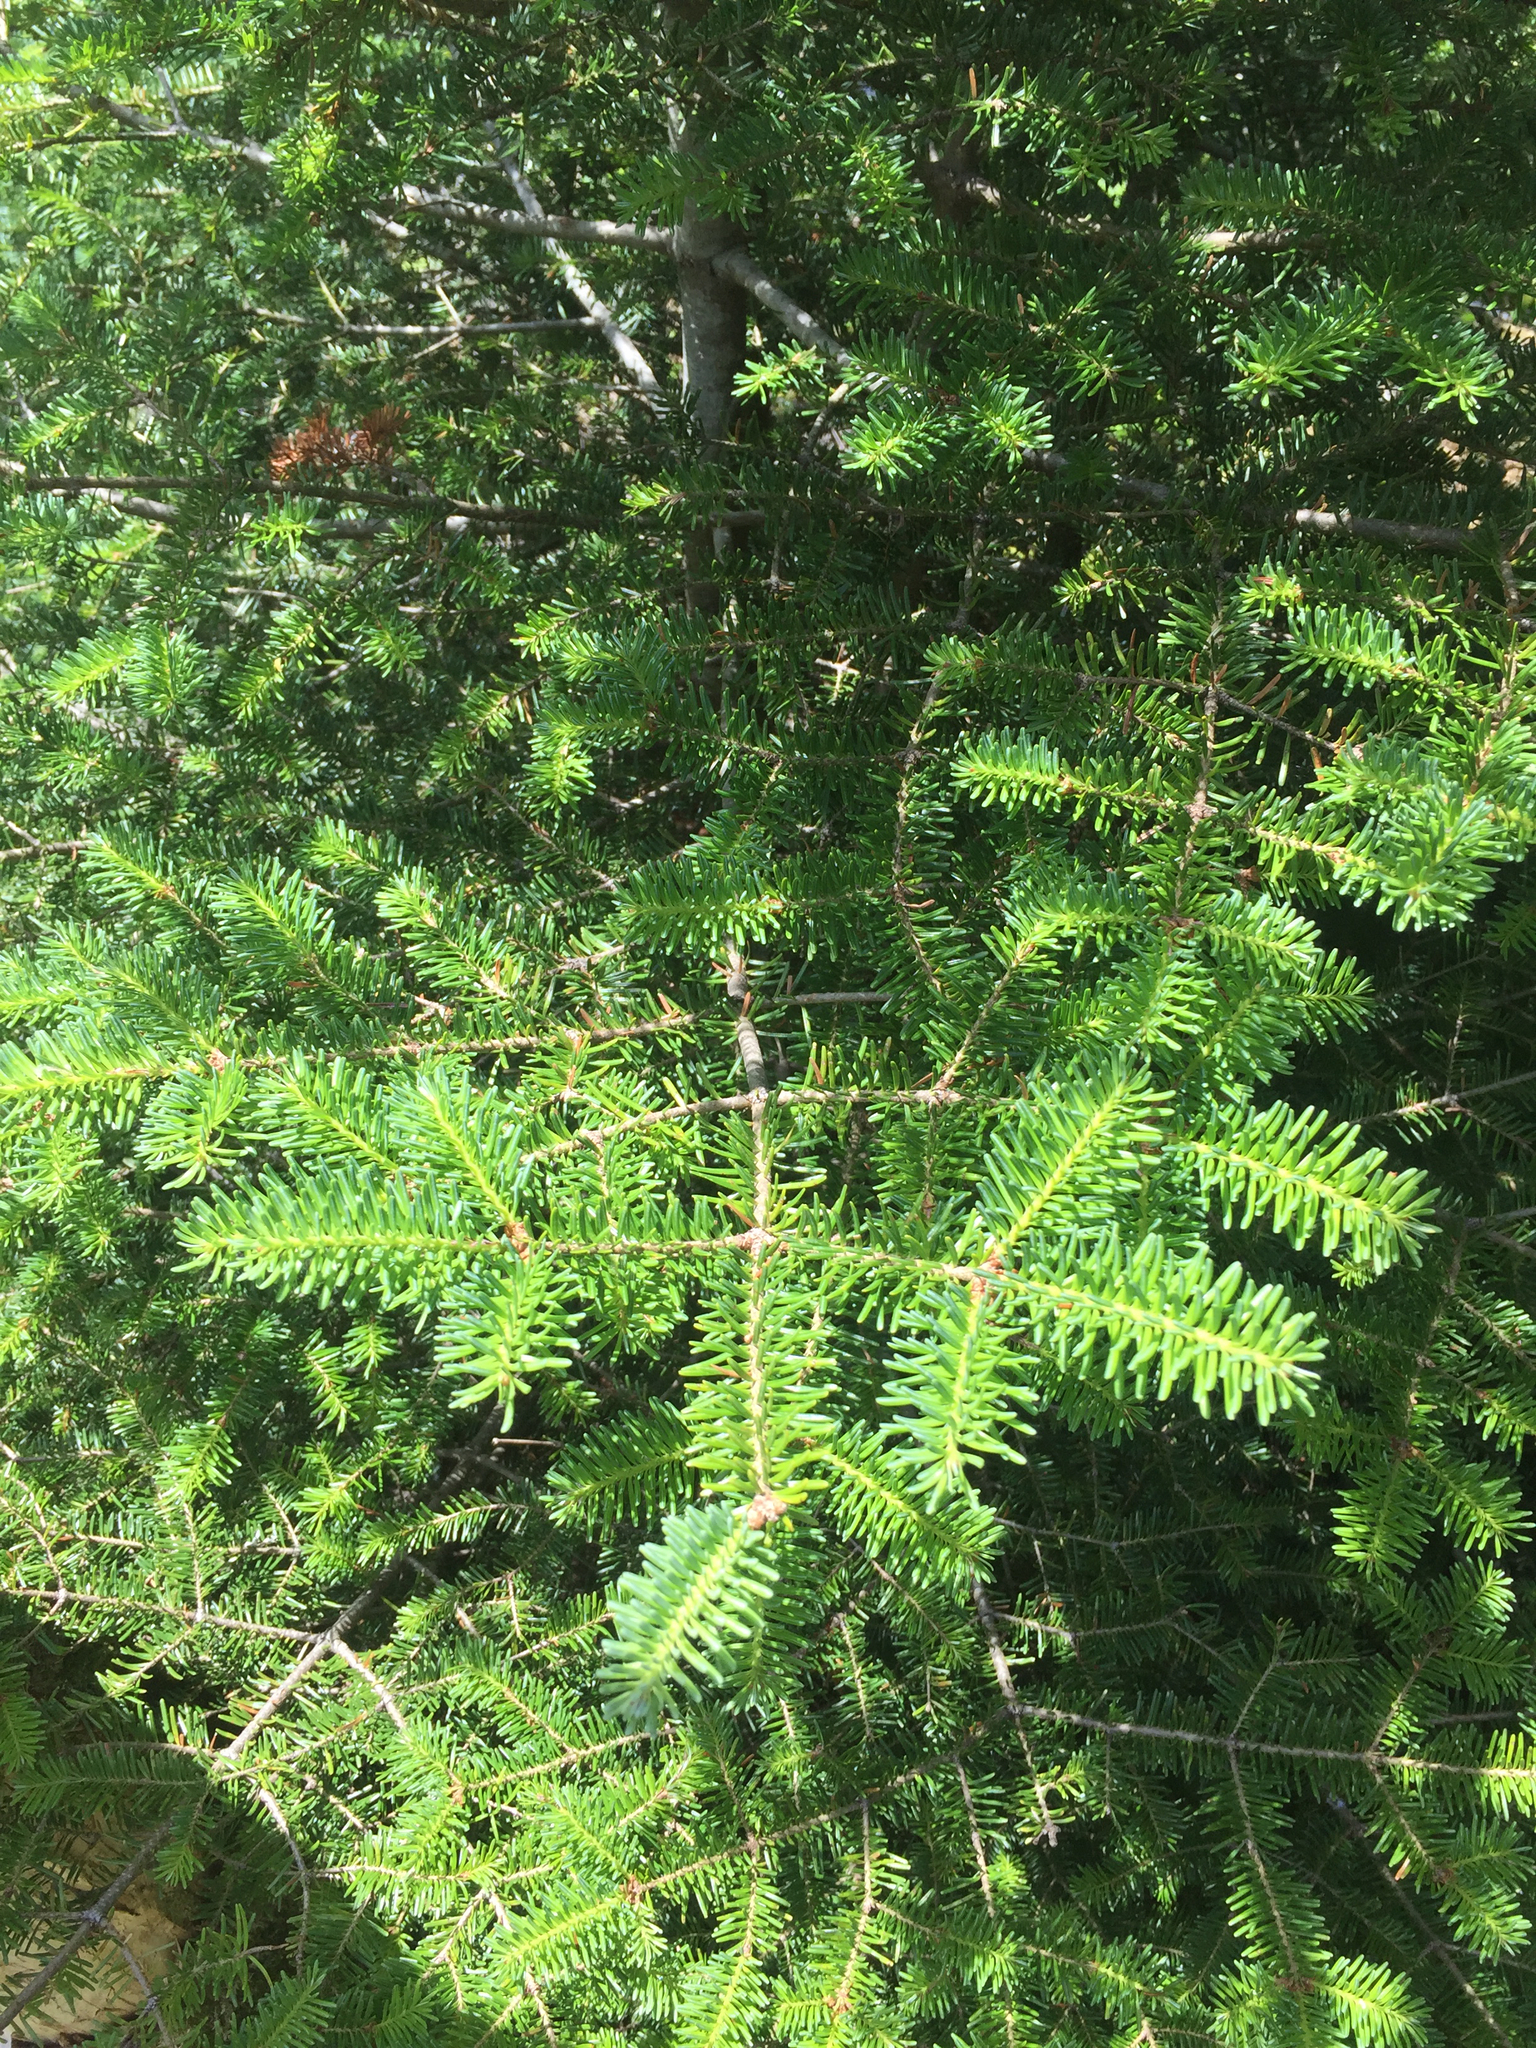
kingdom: Plantae
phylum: Tracheophyta
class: Pinopsida
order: Pinales
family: Pinaceae
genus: Abies
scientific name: Abies balsamea
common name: Balsam fir
